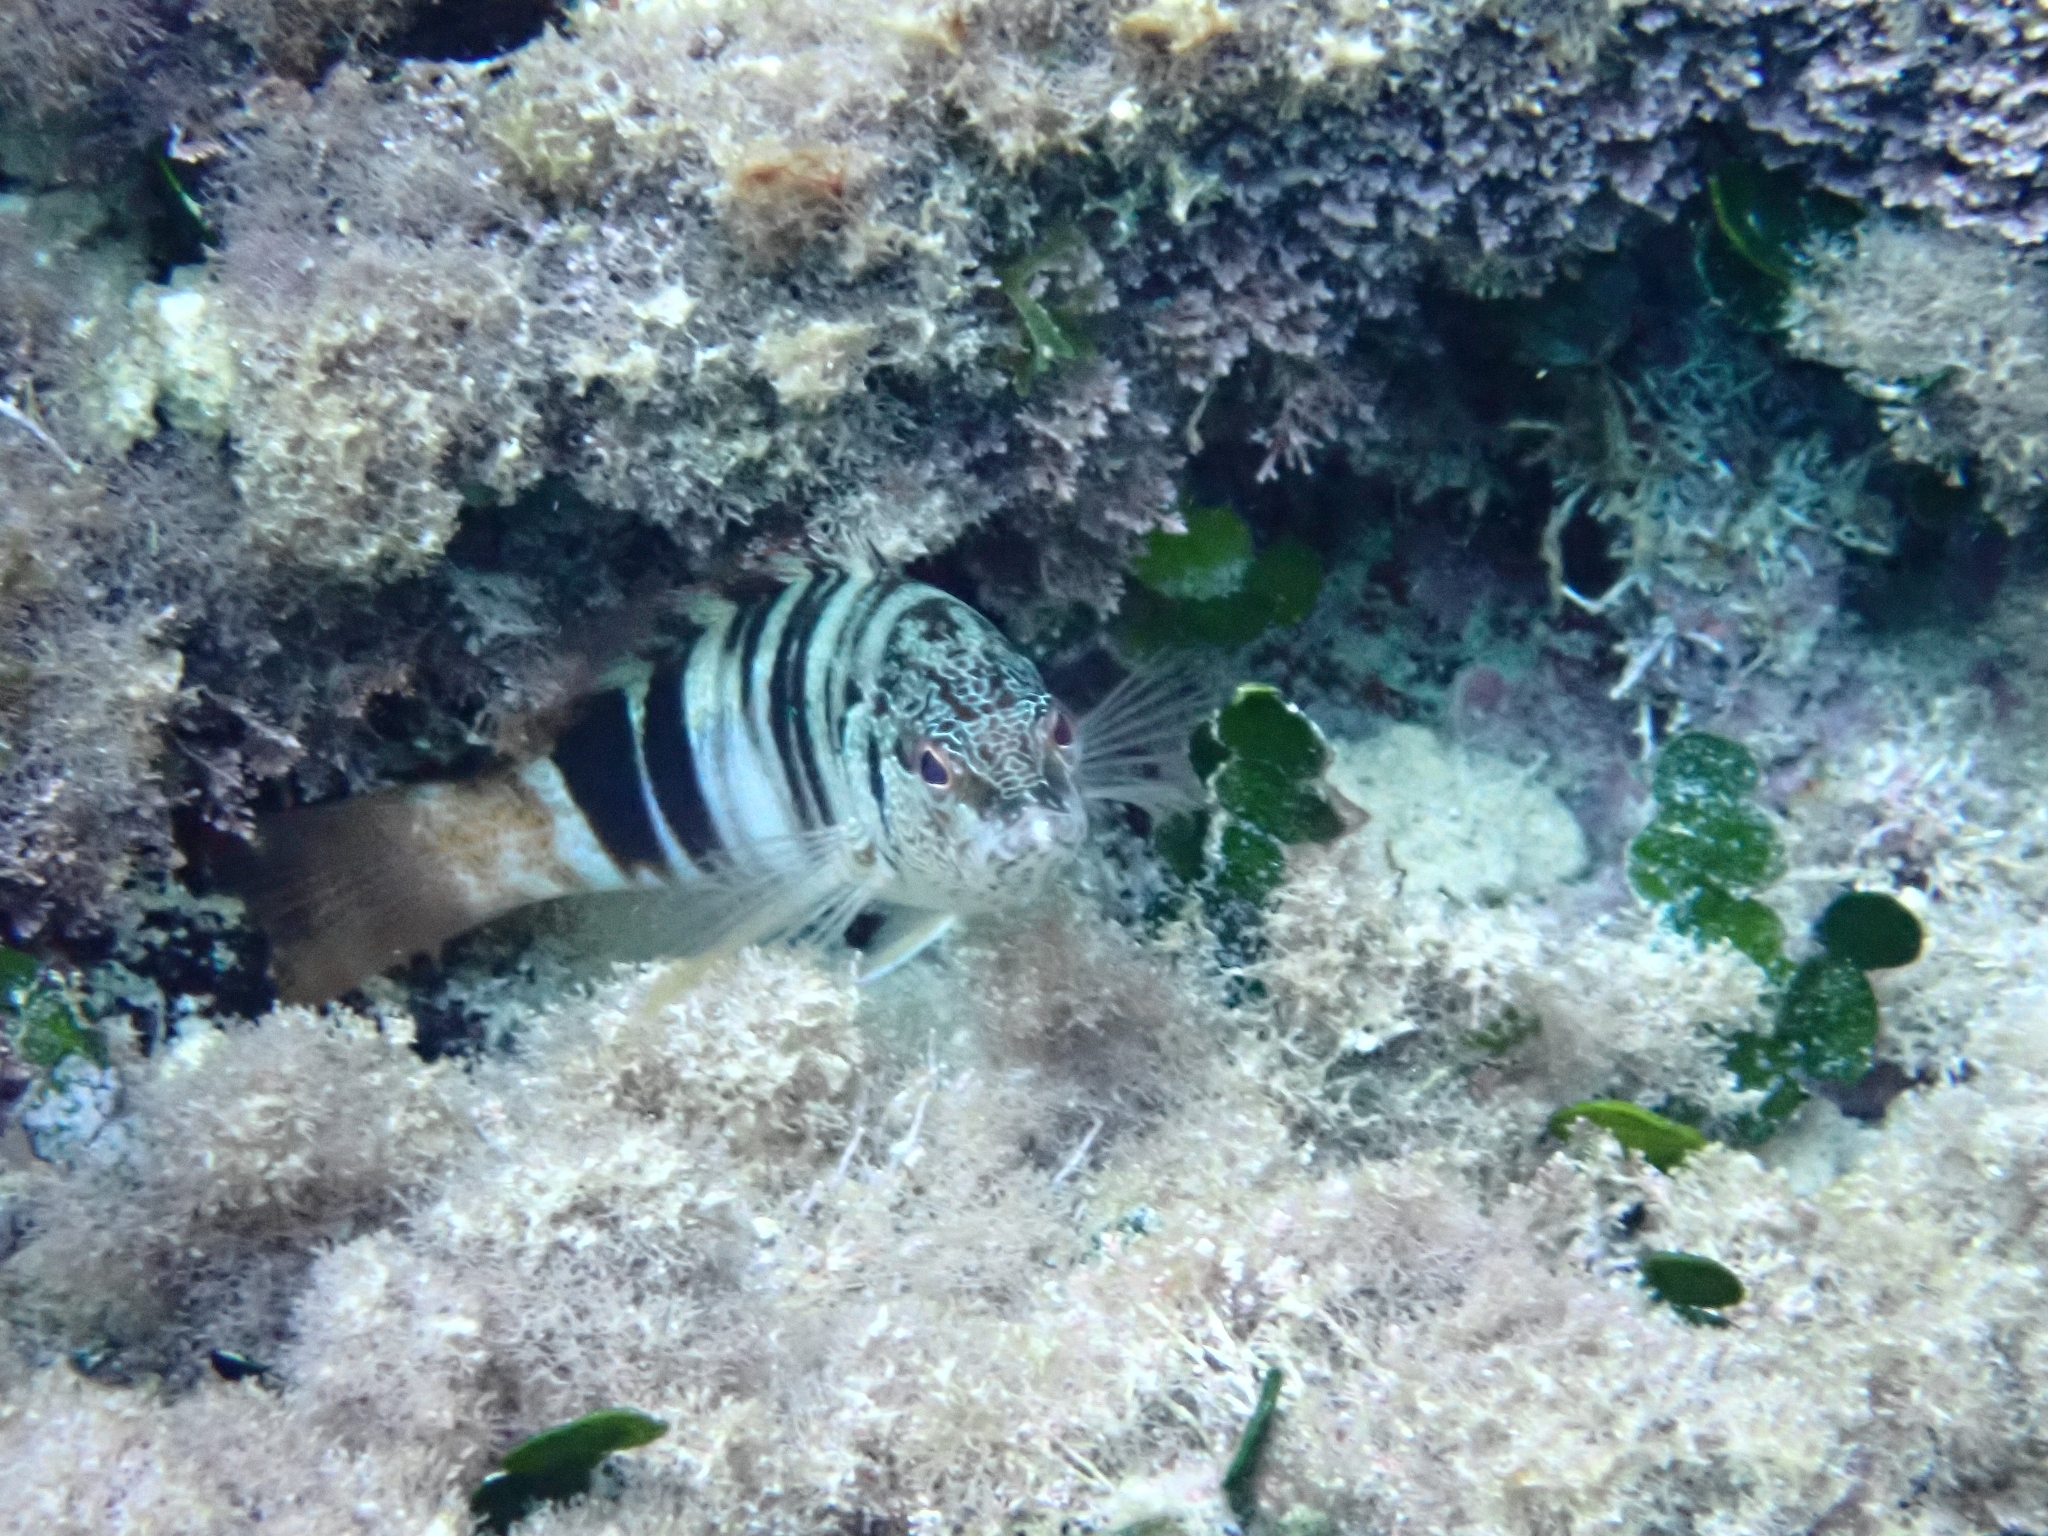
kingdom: Animalia
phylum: Chordata
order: Perciformes
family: Serranidae
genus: Serranus
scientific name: Serranus scriba
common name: Painted comber
